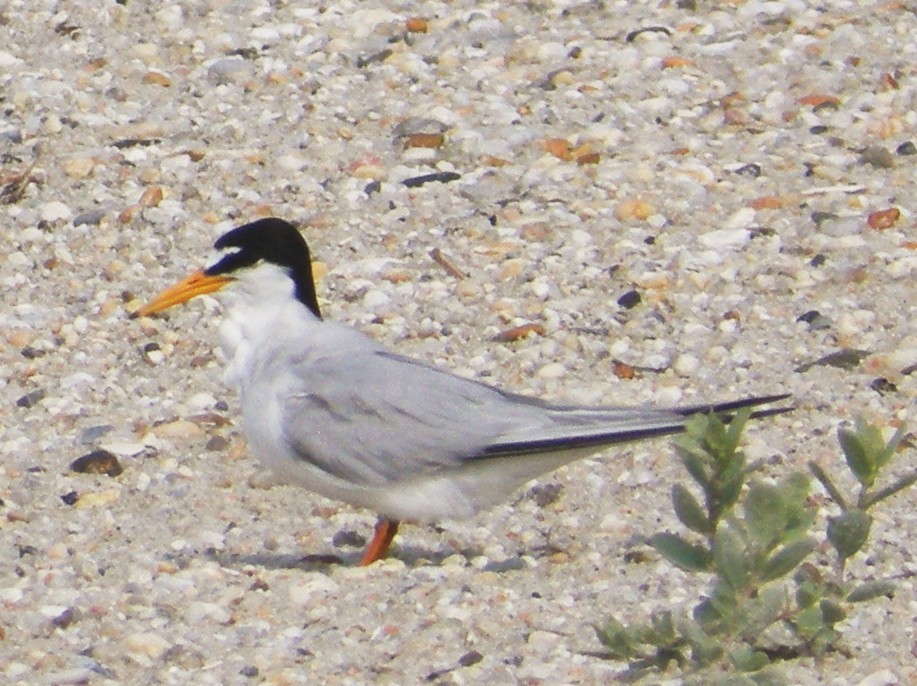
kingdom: Animalia
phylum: Chordata
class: Aves
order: Charadriiformes
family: Laridae
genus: Sternula
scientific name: Sternula antillarum
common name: Least tern
